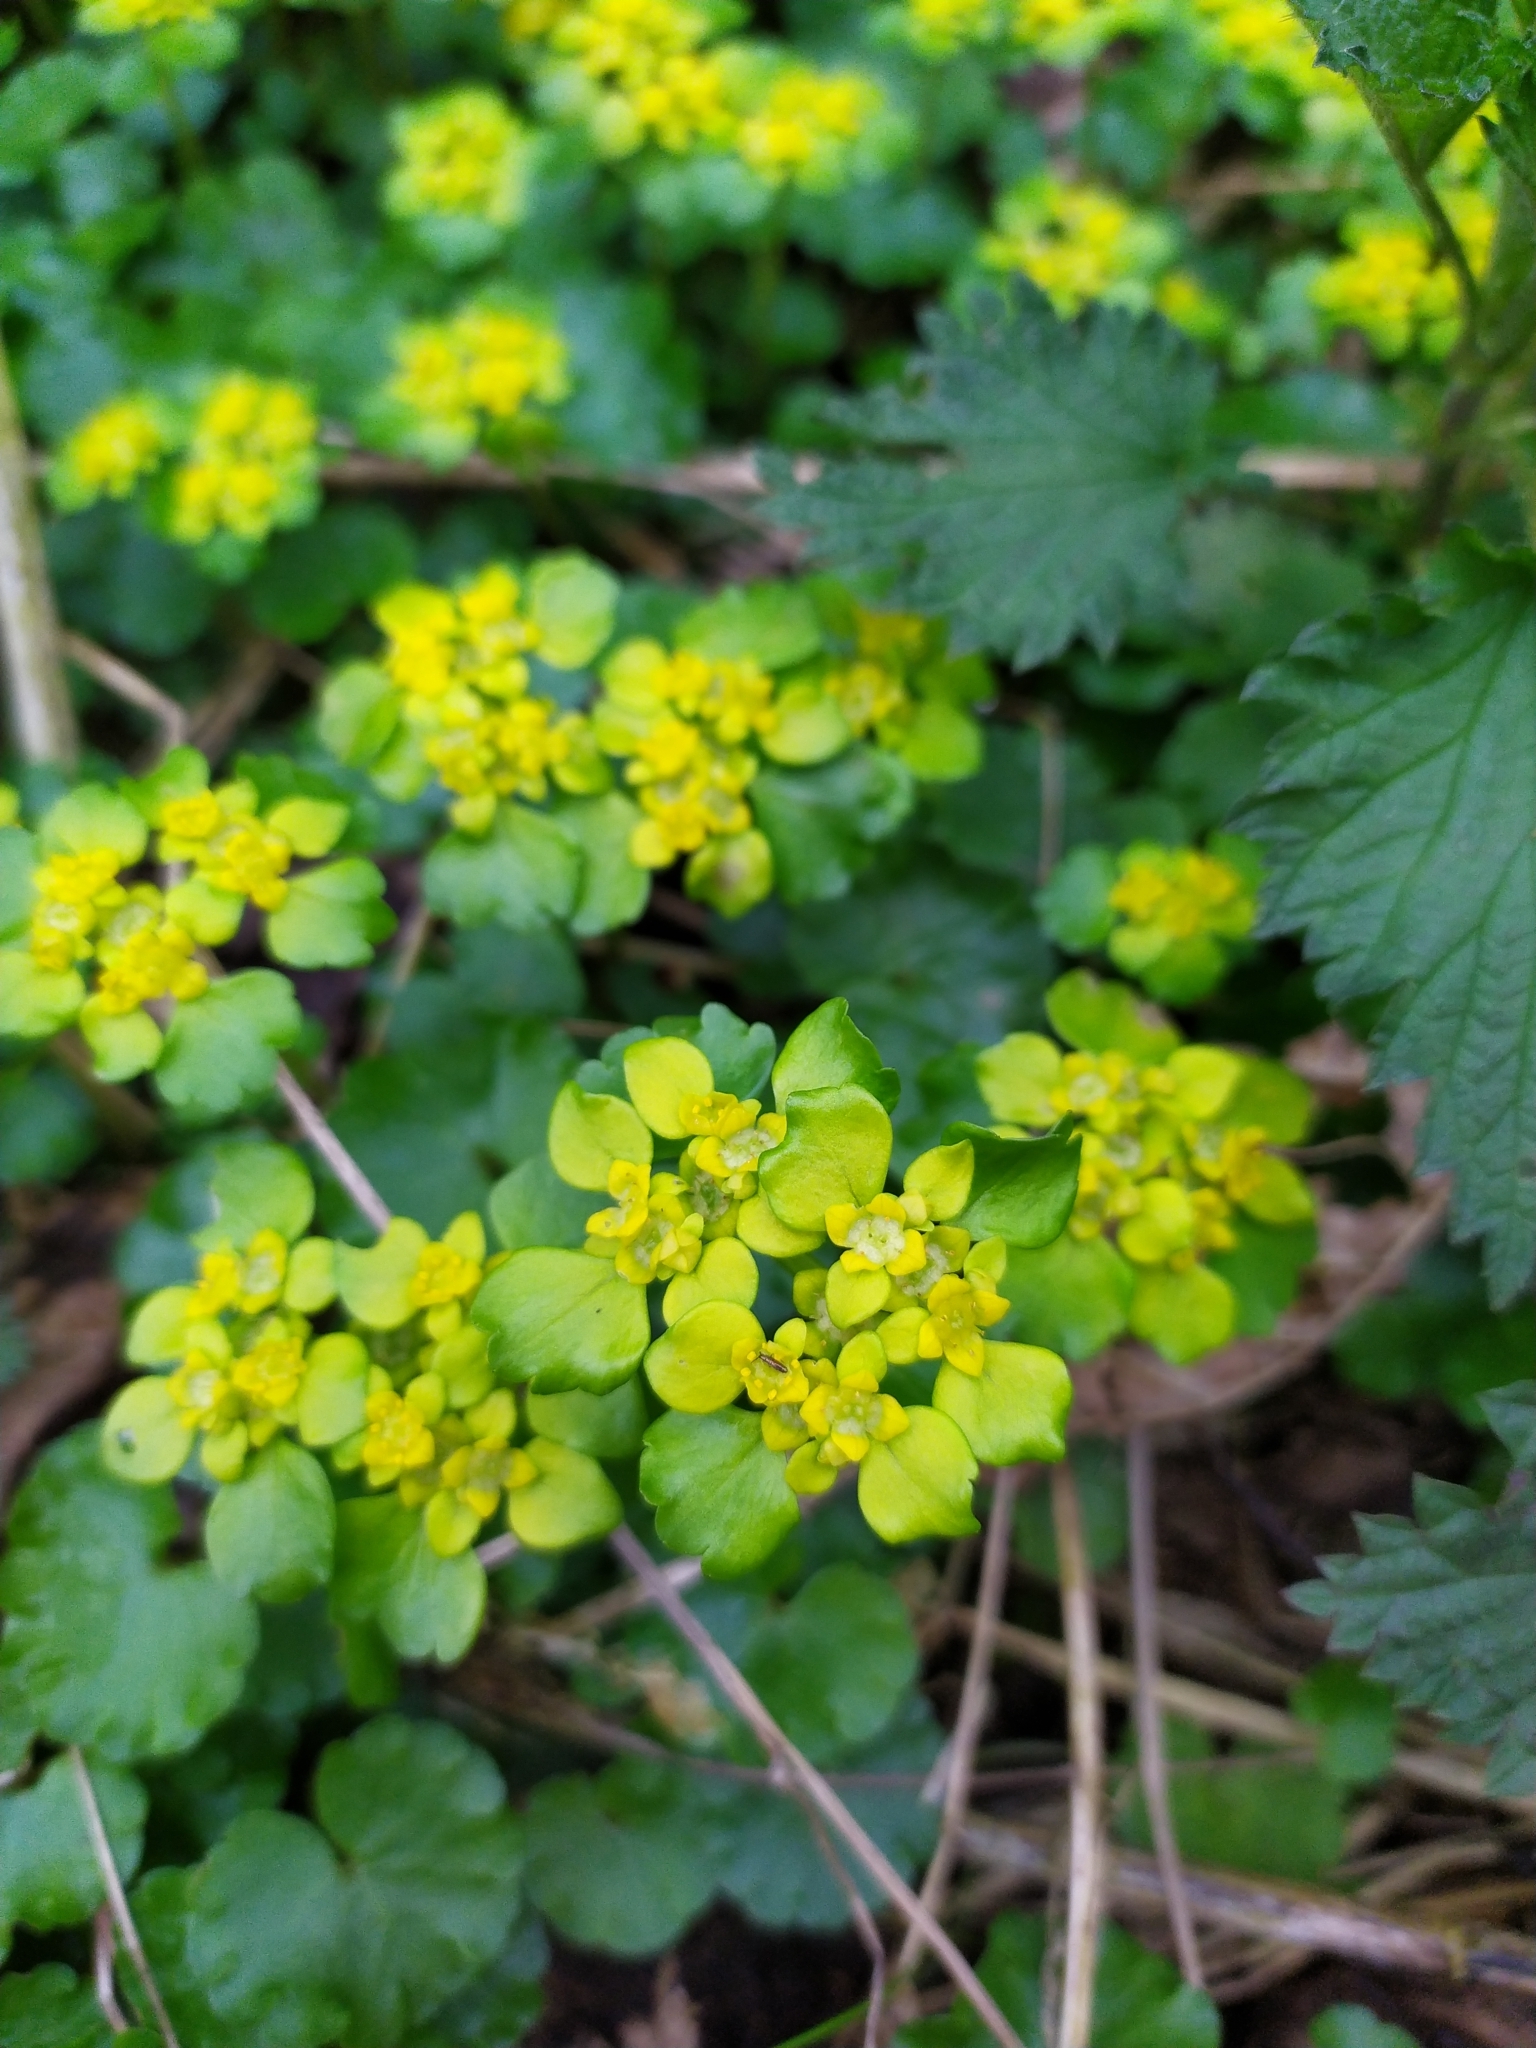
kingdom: Plantae
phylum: Tracheophyta
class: Magnoliopsida
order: Saxifragales
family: Saxifragaceae
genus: Chrysosplenium
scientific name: Chrysosplenium alternifolium
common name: Alternate-leaved golden-saxifrage
